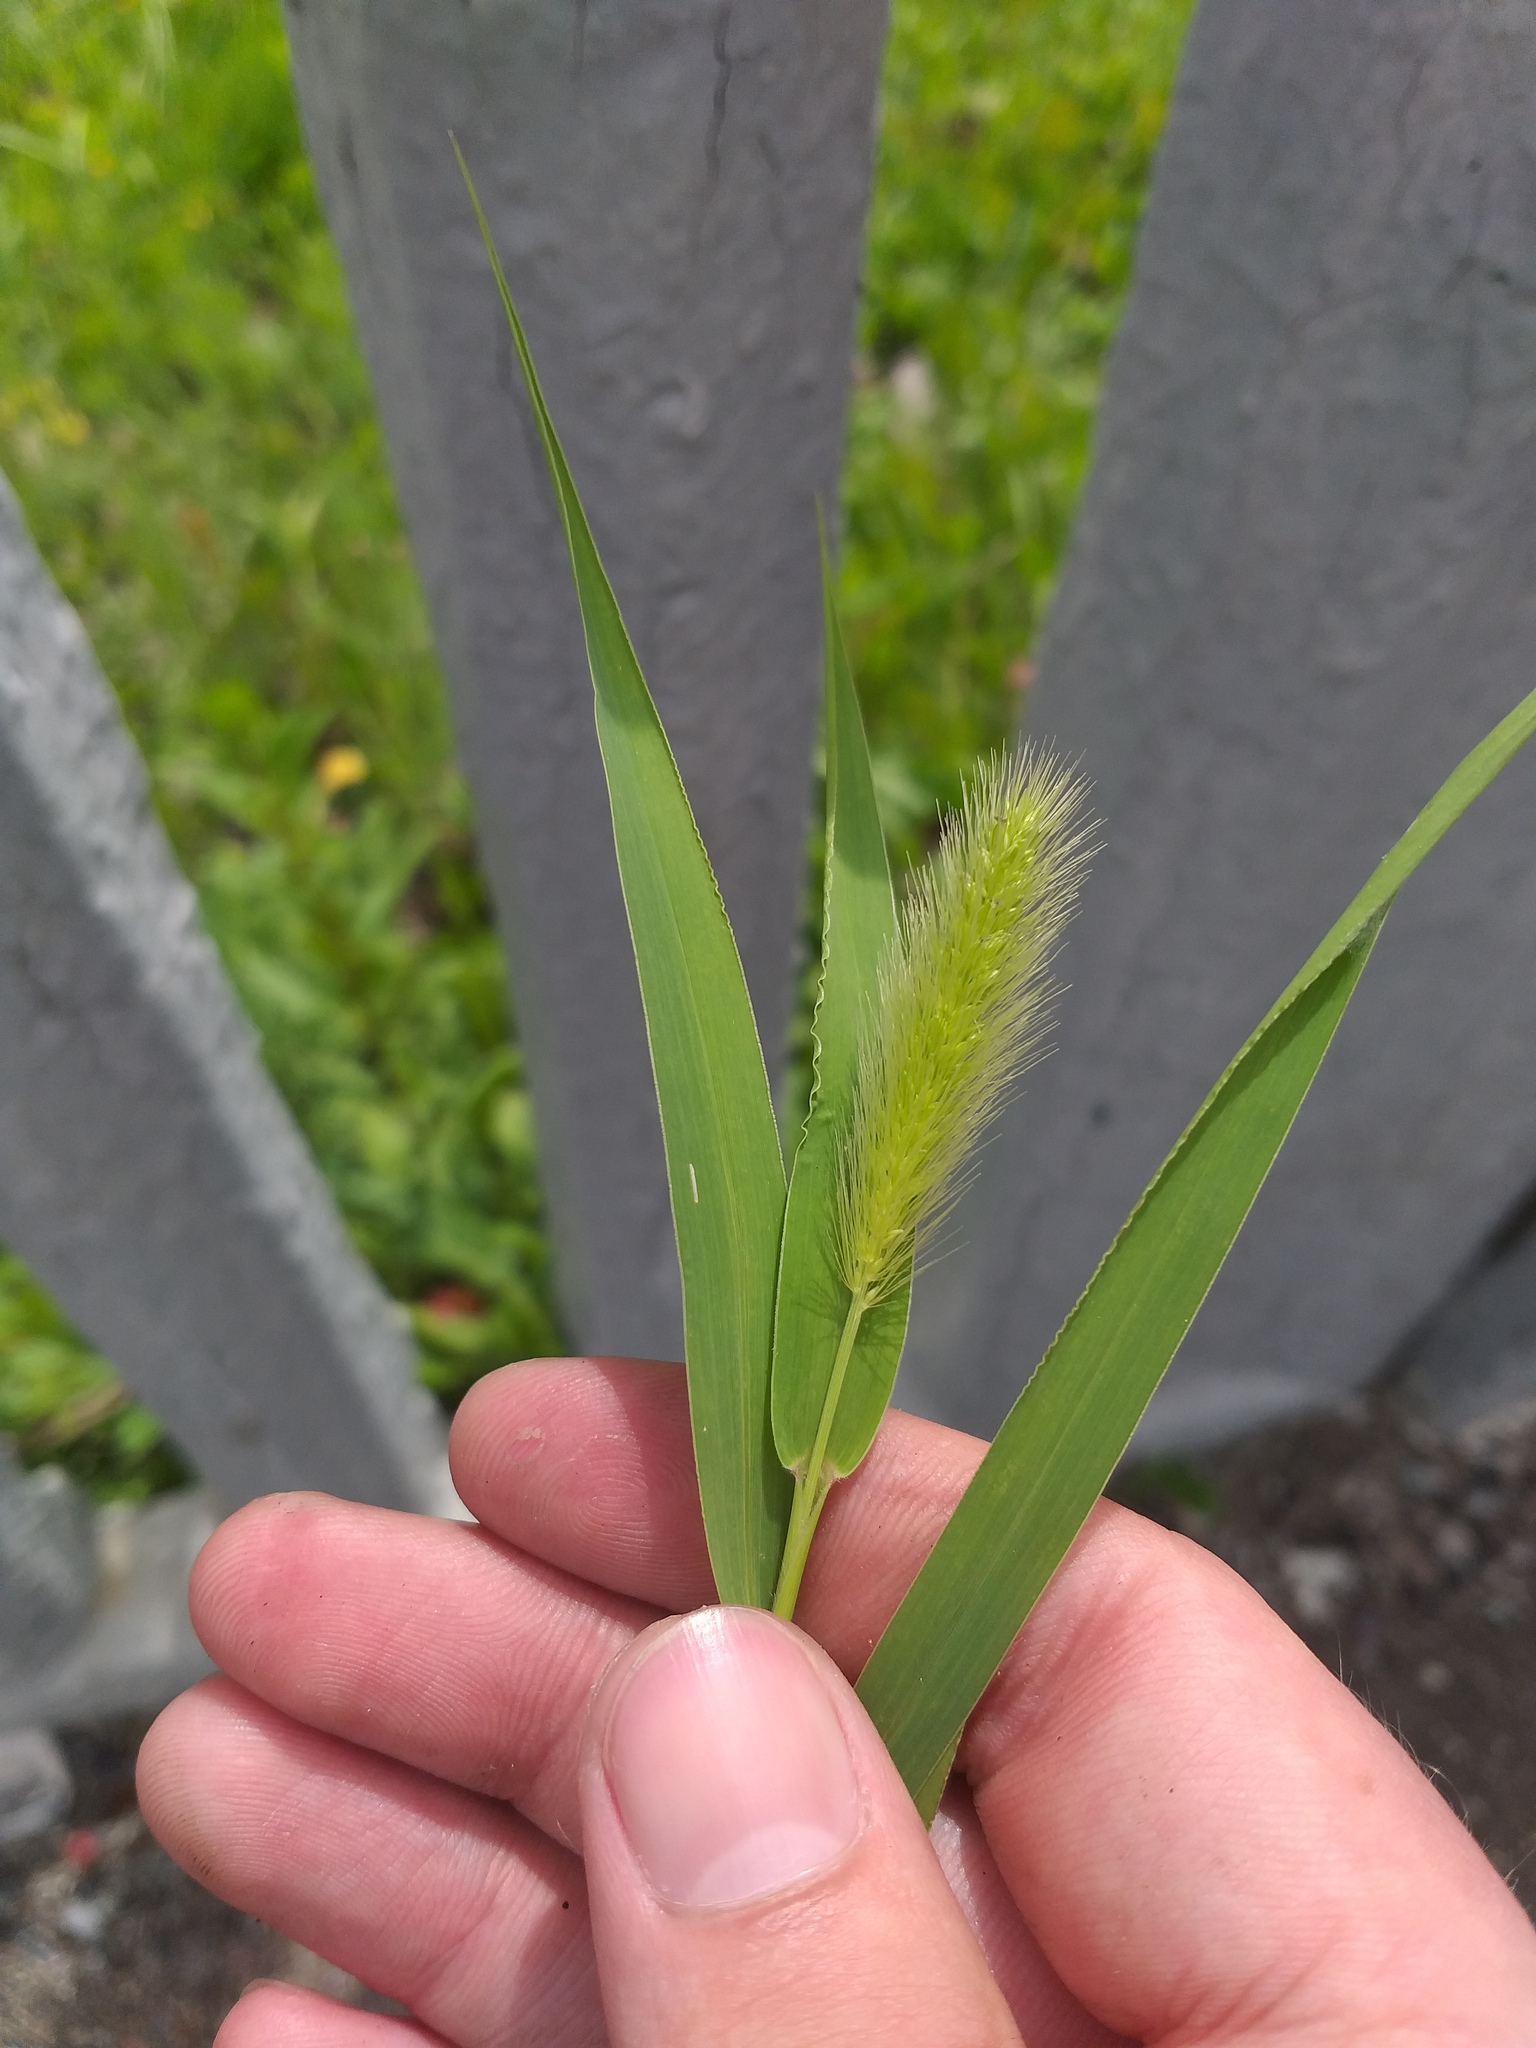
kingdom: Plantae
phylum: Tracheophyta
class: Liliopsida
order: Poales
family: Poaceae
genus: Setaria
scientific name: Setaria viridis
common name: Green bristlegrass
